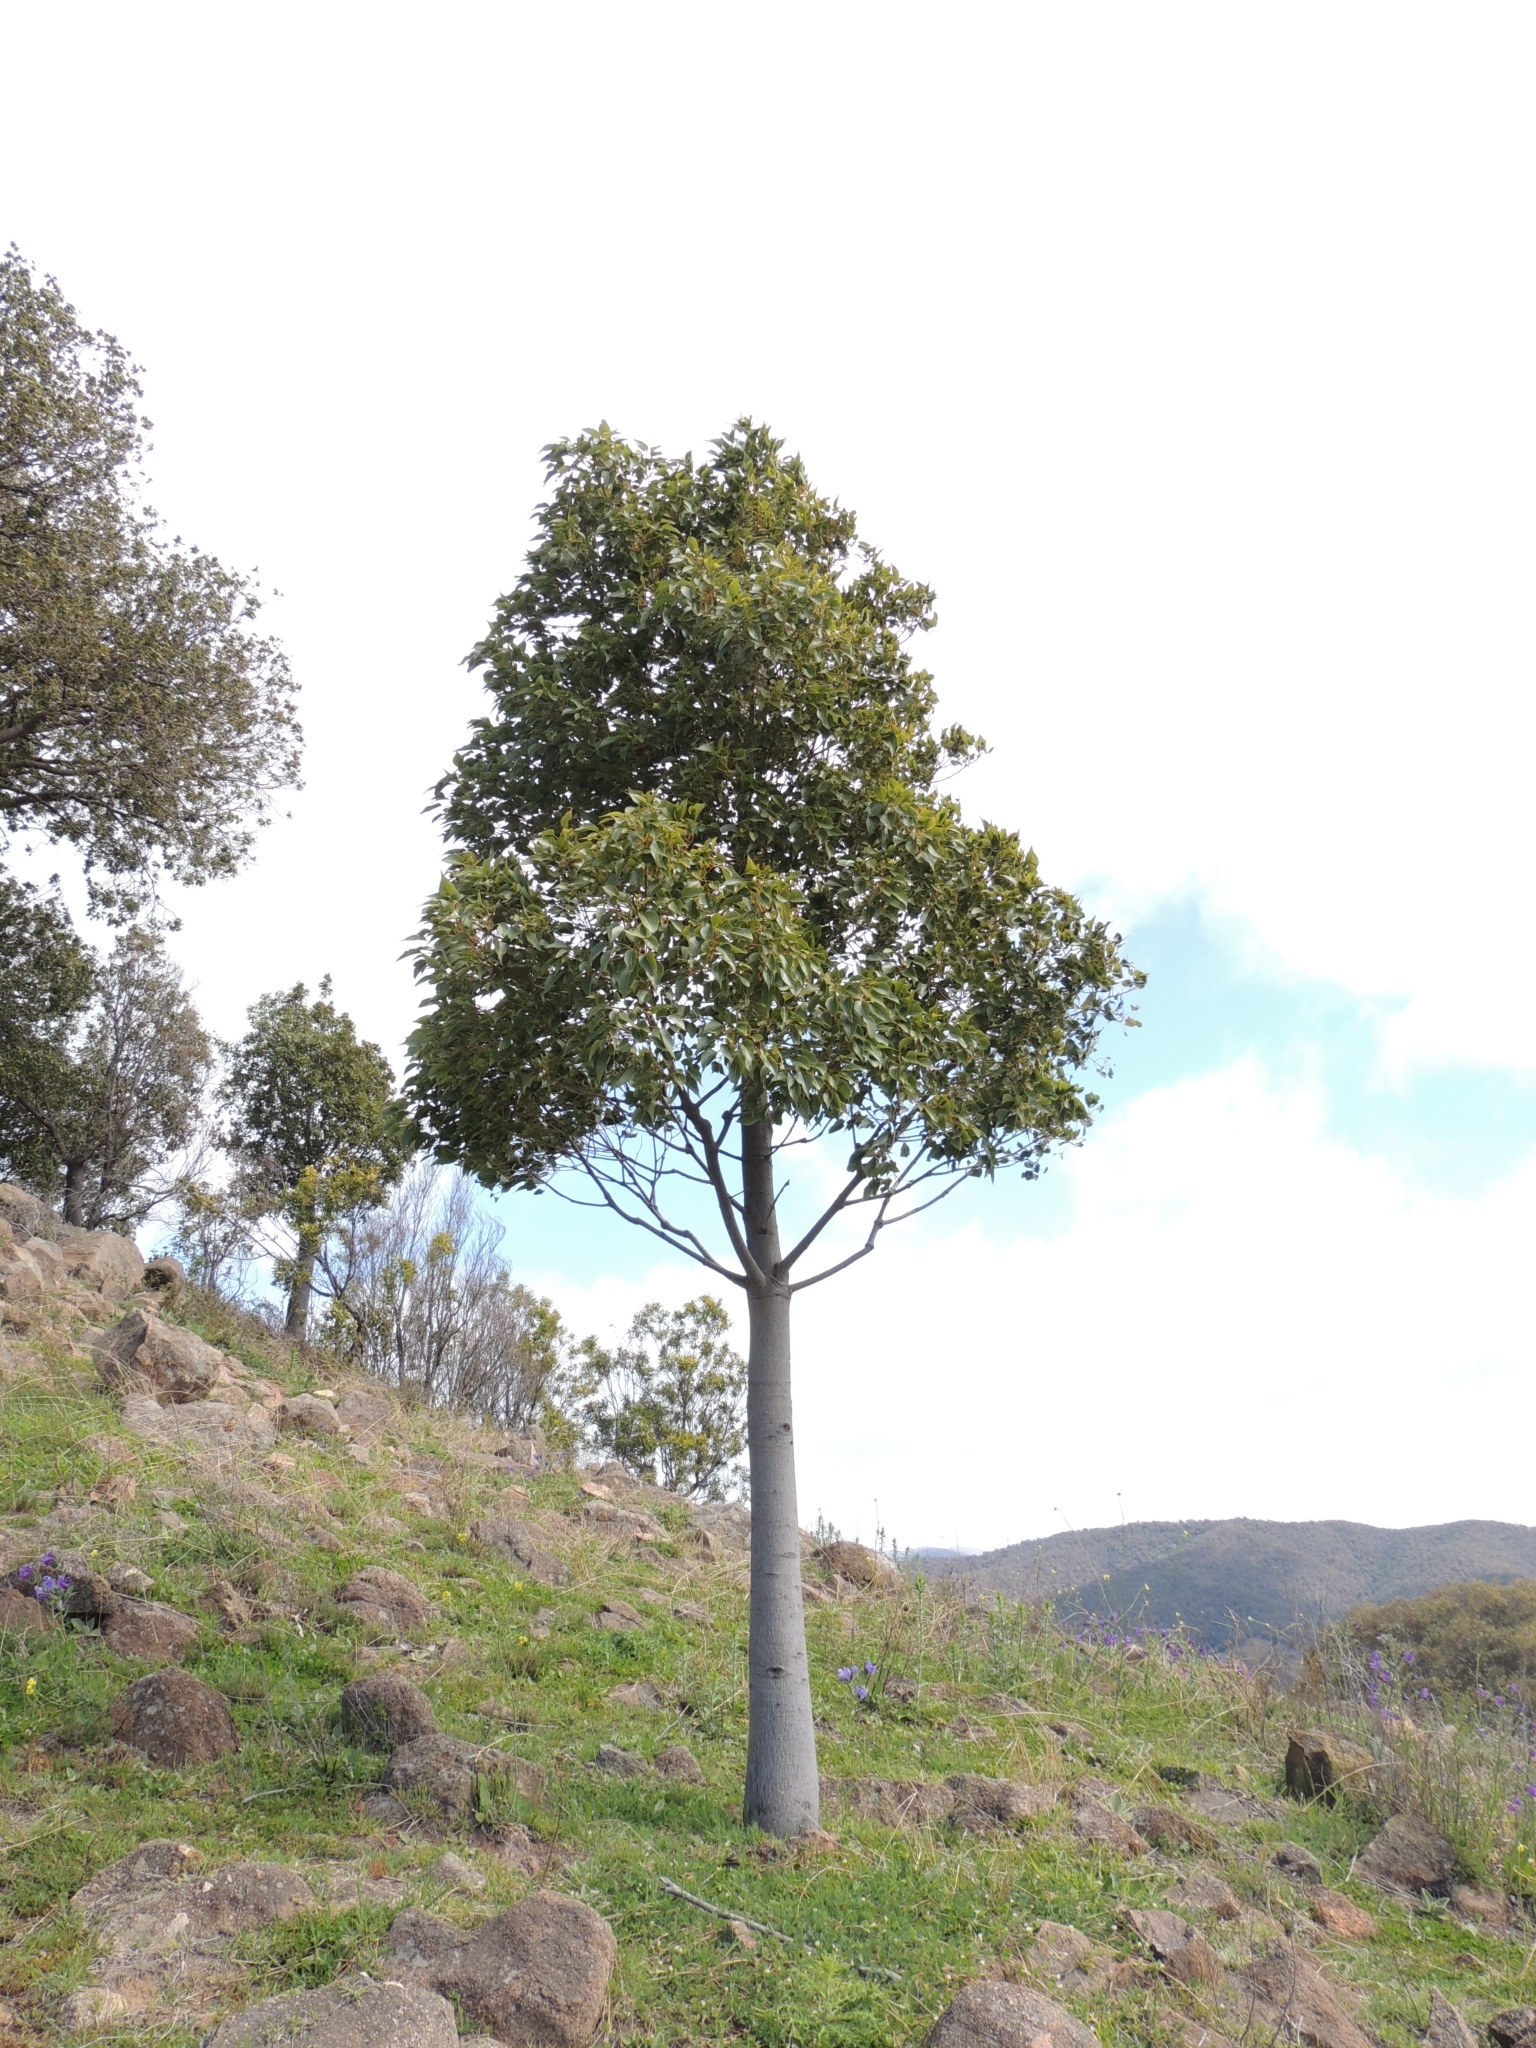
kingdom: Plantae
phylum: Tracheophyta
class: Magnoliopsida
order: Malvales
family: Malvaceae
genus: Brachychiton
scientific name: Brachychiton populneus
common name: Kurrajong
